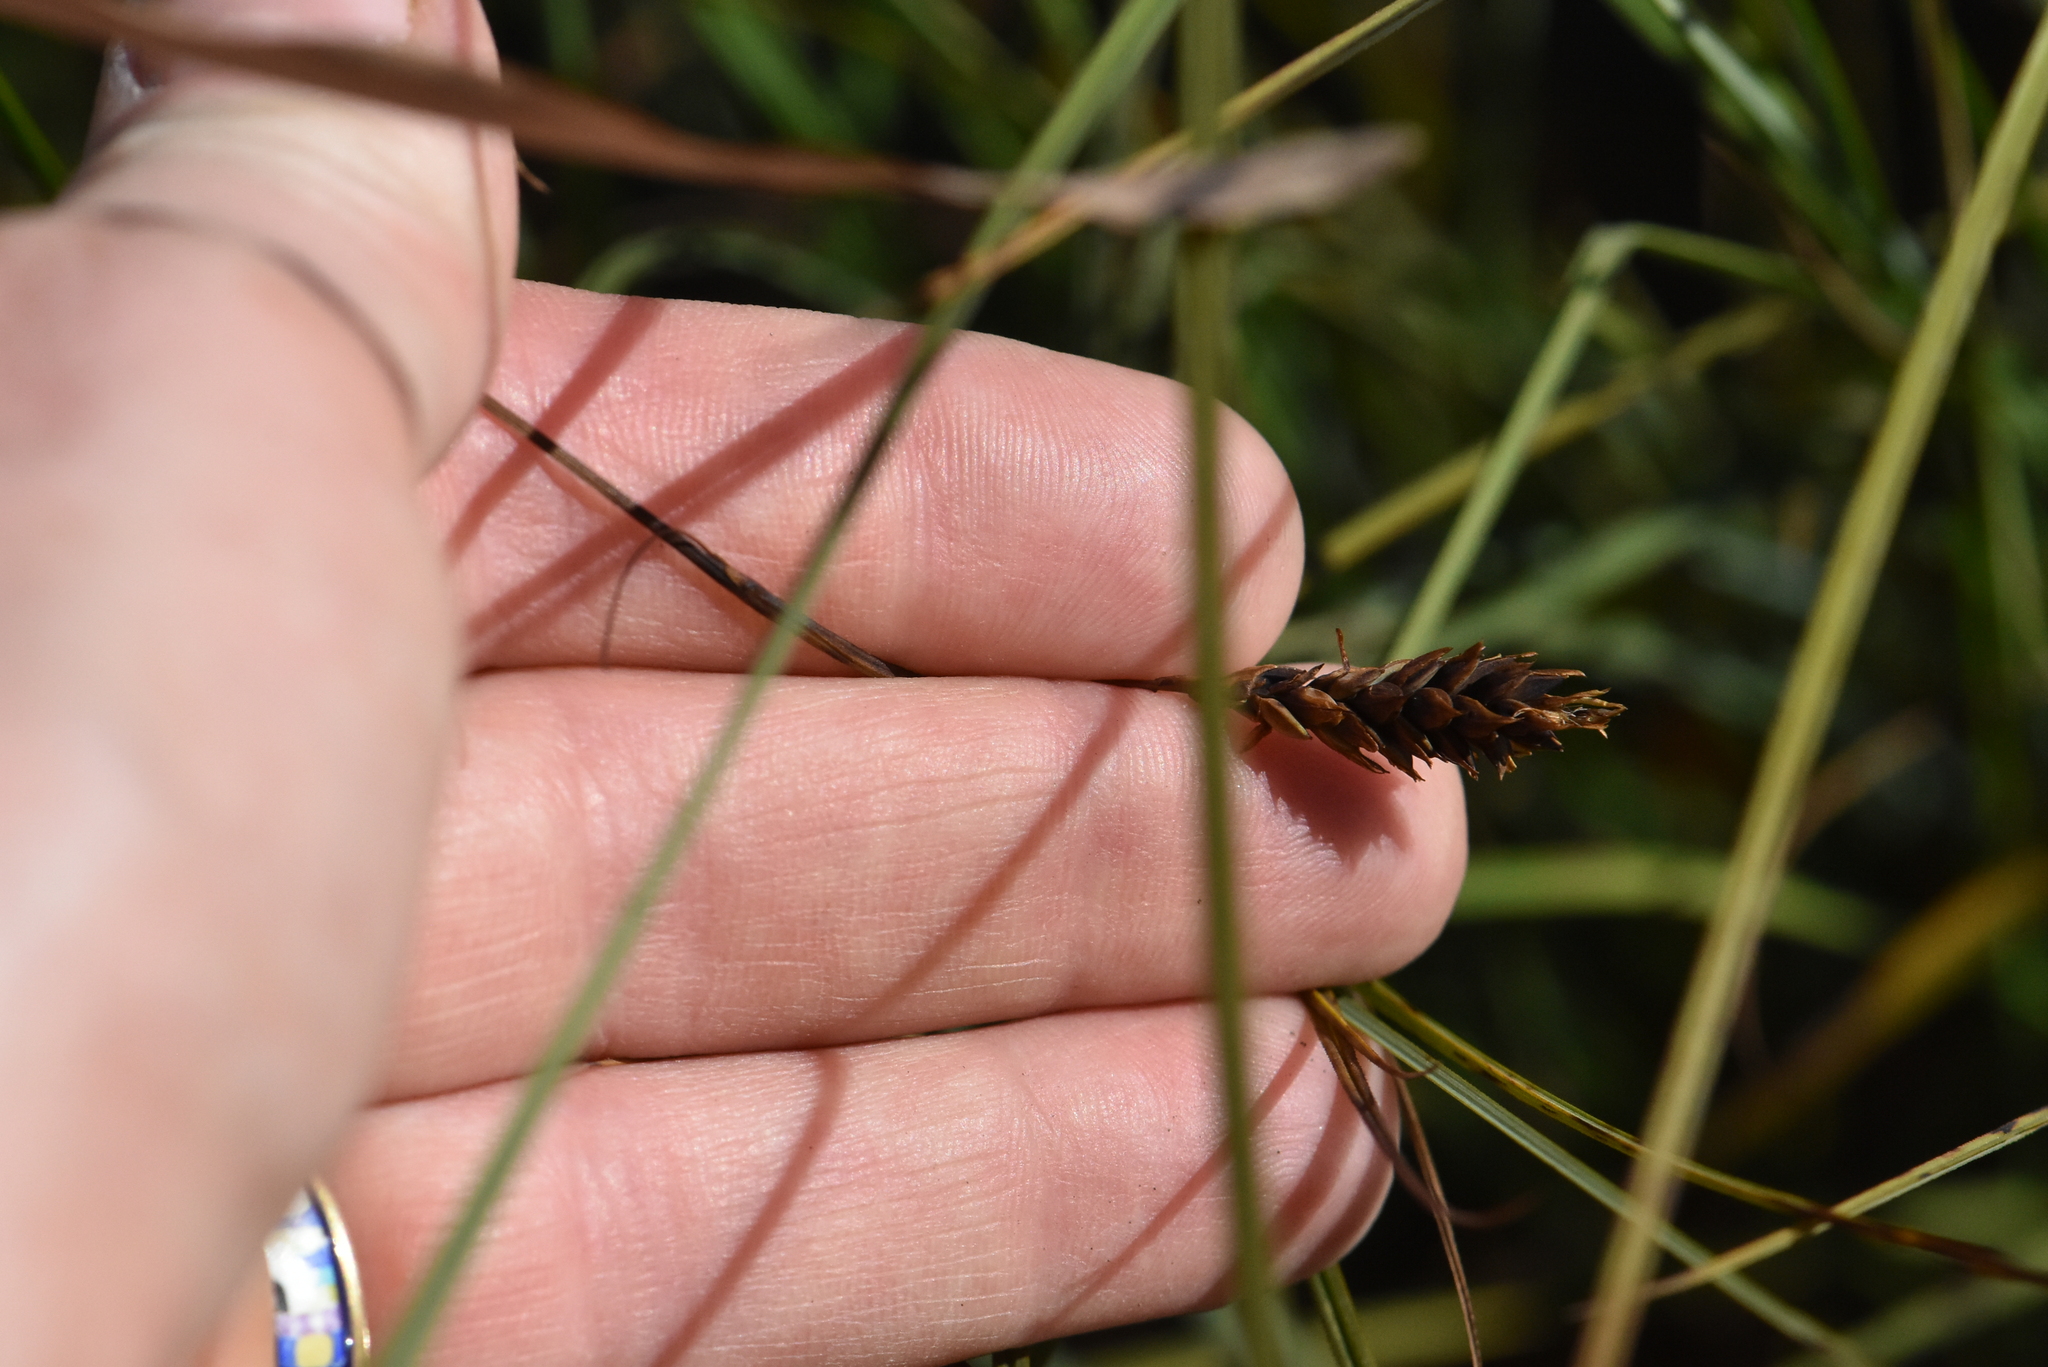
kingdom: Plantae
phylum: Tracheophyta
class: Liliopsida
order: Poales
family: Cyperaceae
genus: Carex
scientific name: Carex limosa
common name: Bog sedge
